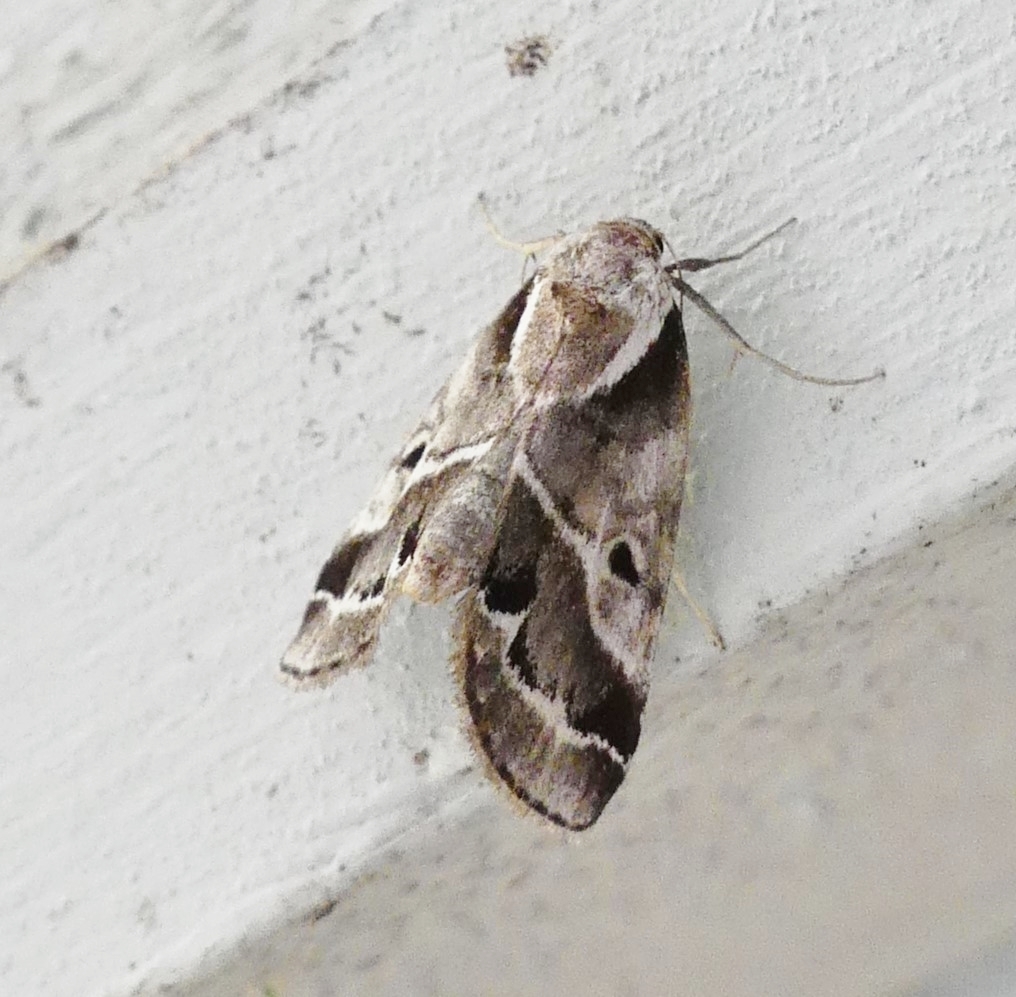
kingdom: Animalia
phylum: Arthropoda
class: Insecta
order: Lepidoptera
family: Nolidae
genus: Baileya
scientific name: Baileya doubledayi
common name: Doubleday's baileya moth
